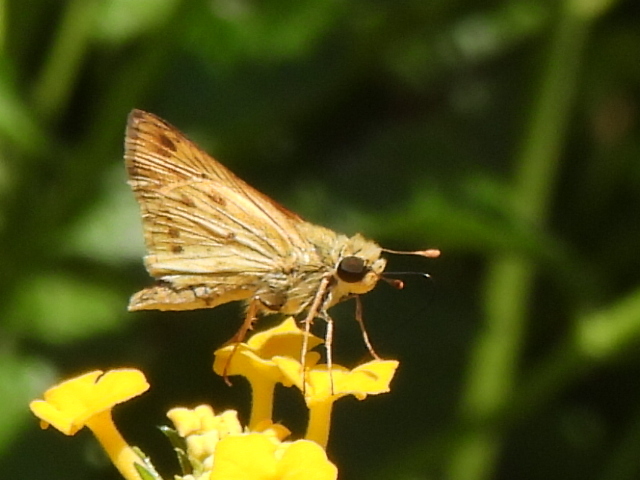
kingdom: Animalia
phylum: Arthropoda
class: Insecta
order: Lepidoptera
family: Hesperiidae
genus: Hylephila
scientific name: Hylephila phyleus
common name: Fiery skipper
